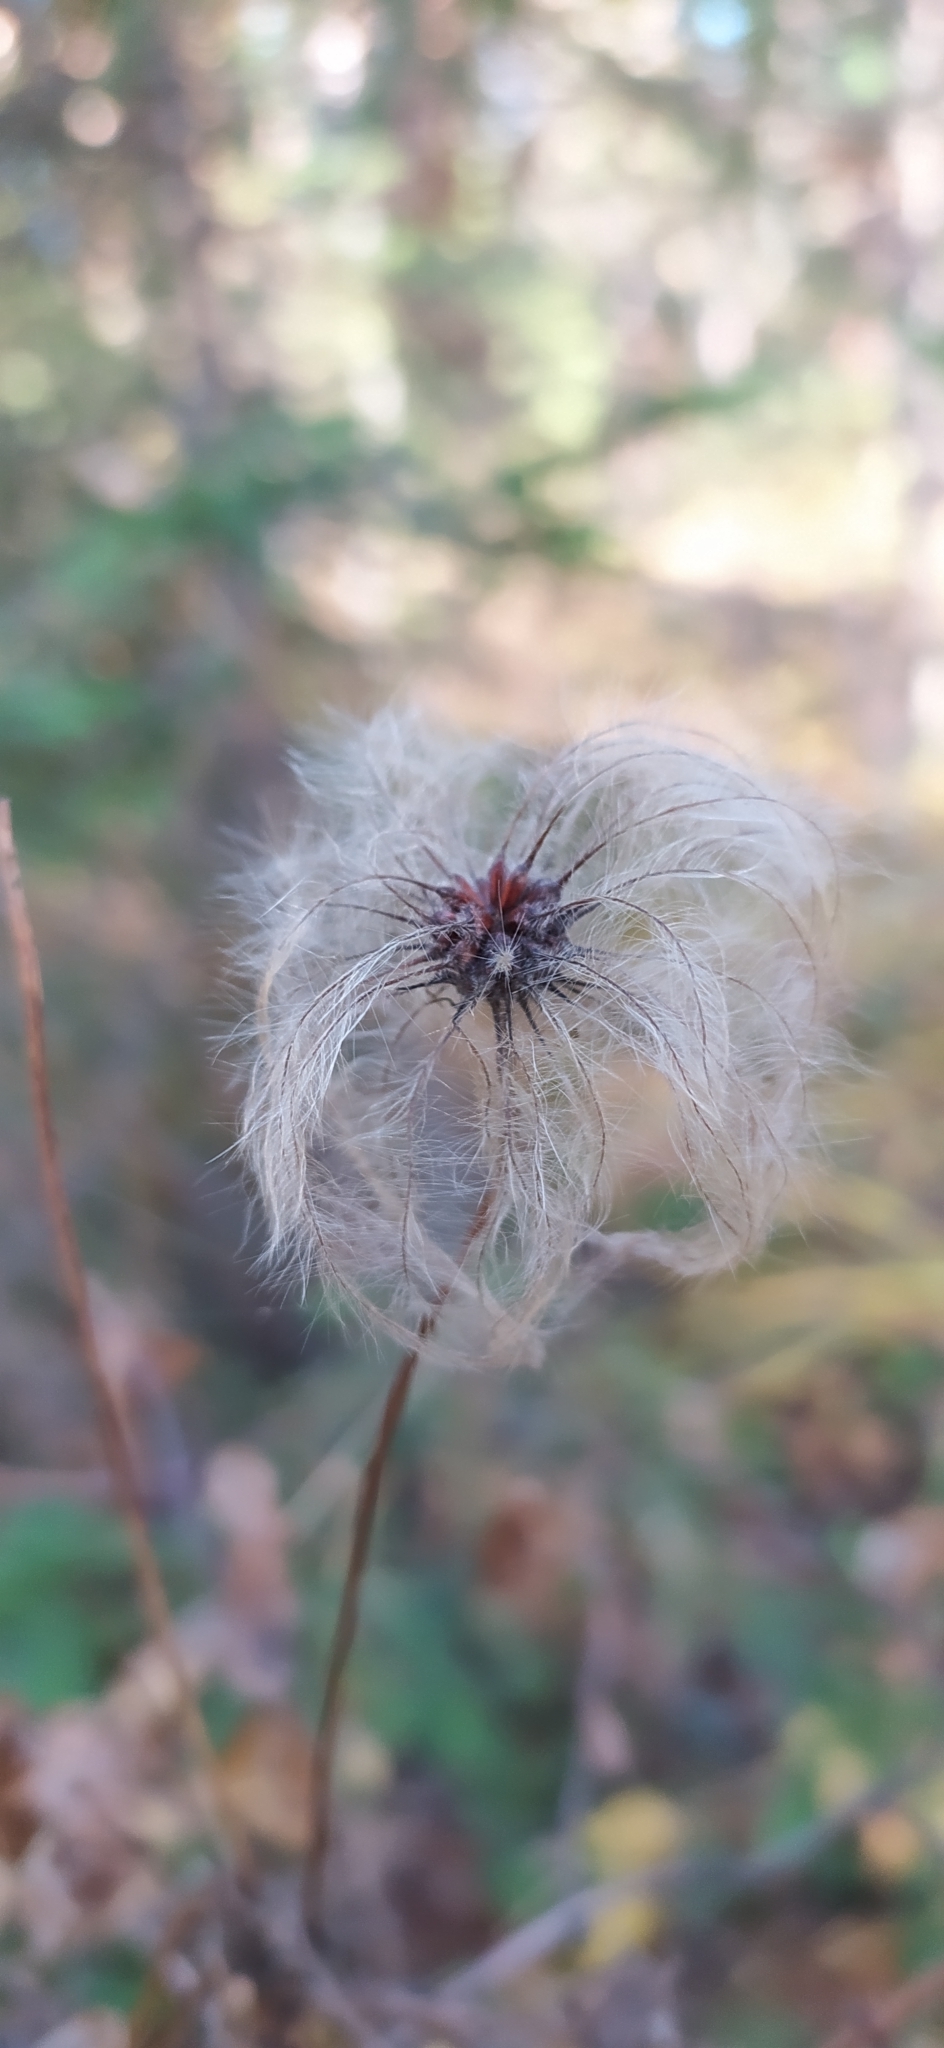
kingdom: Plantae
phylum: Tracheophyta
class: Magnoliopsida
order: Ranunculales
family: Ranunculaceae
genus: Clematis
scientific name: Clematis sibirica
